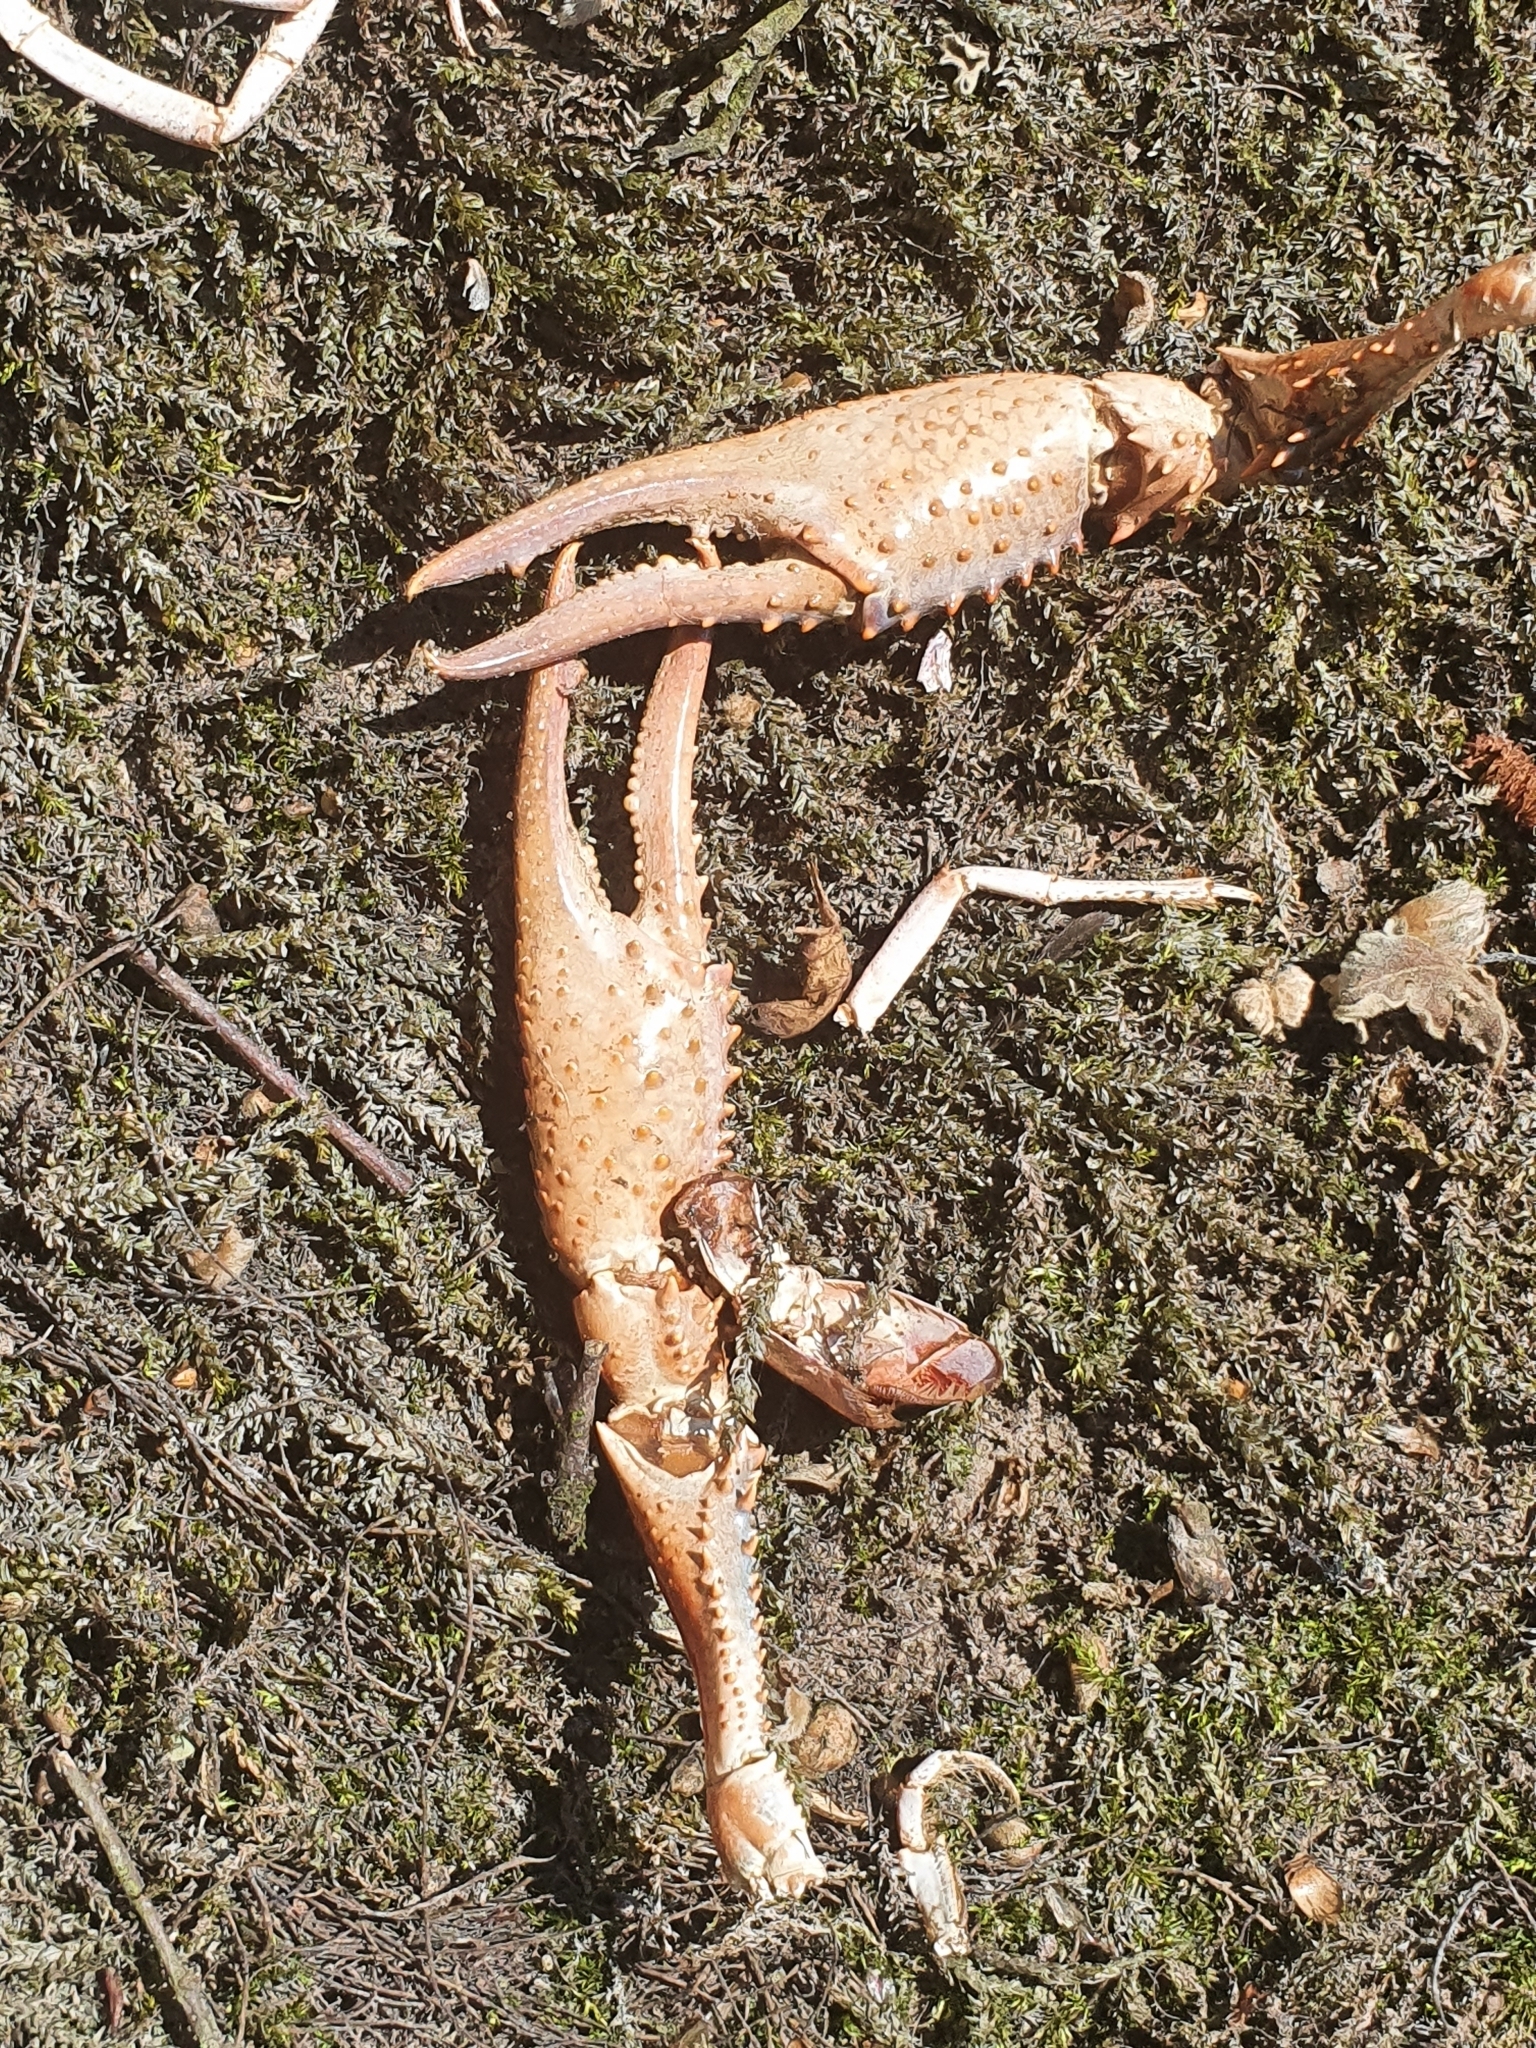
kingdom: Animalia
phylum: Arthropoda
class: Malacostraca
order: Decapoda
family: Cambaridae
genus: Procambarus
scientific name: Procambarus clarkii
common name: Red swamp crayfish
